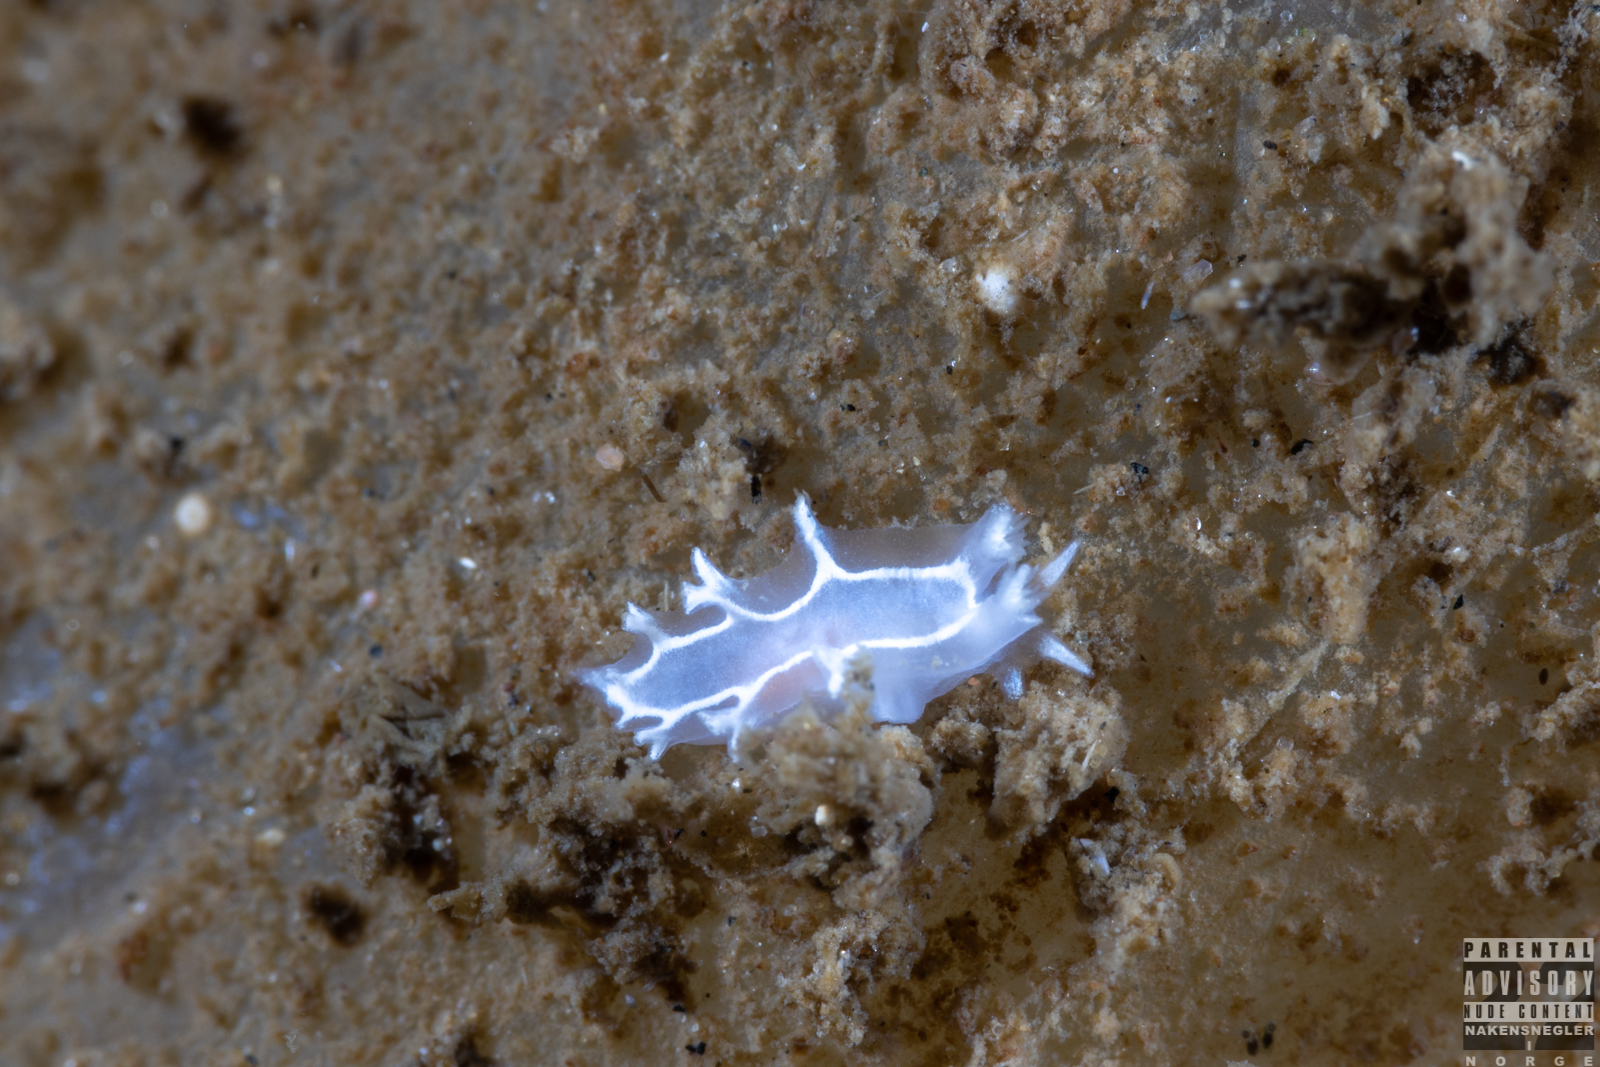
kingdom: Animalia
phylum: Mollusca
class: Gastropoda
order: Nudibranchia
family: Tritoniidae
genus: Duvaucelia
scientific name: Duvaucelia lineata
